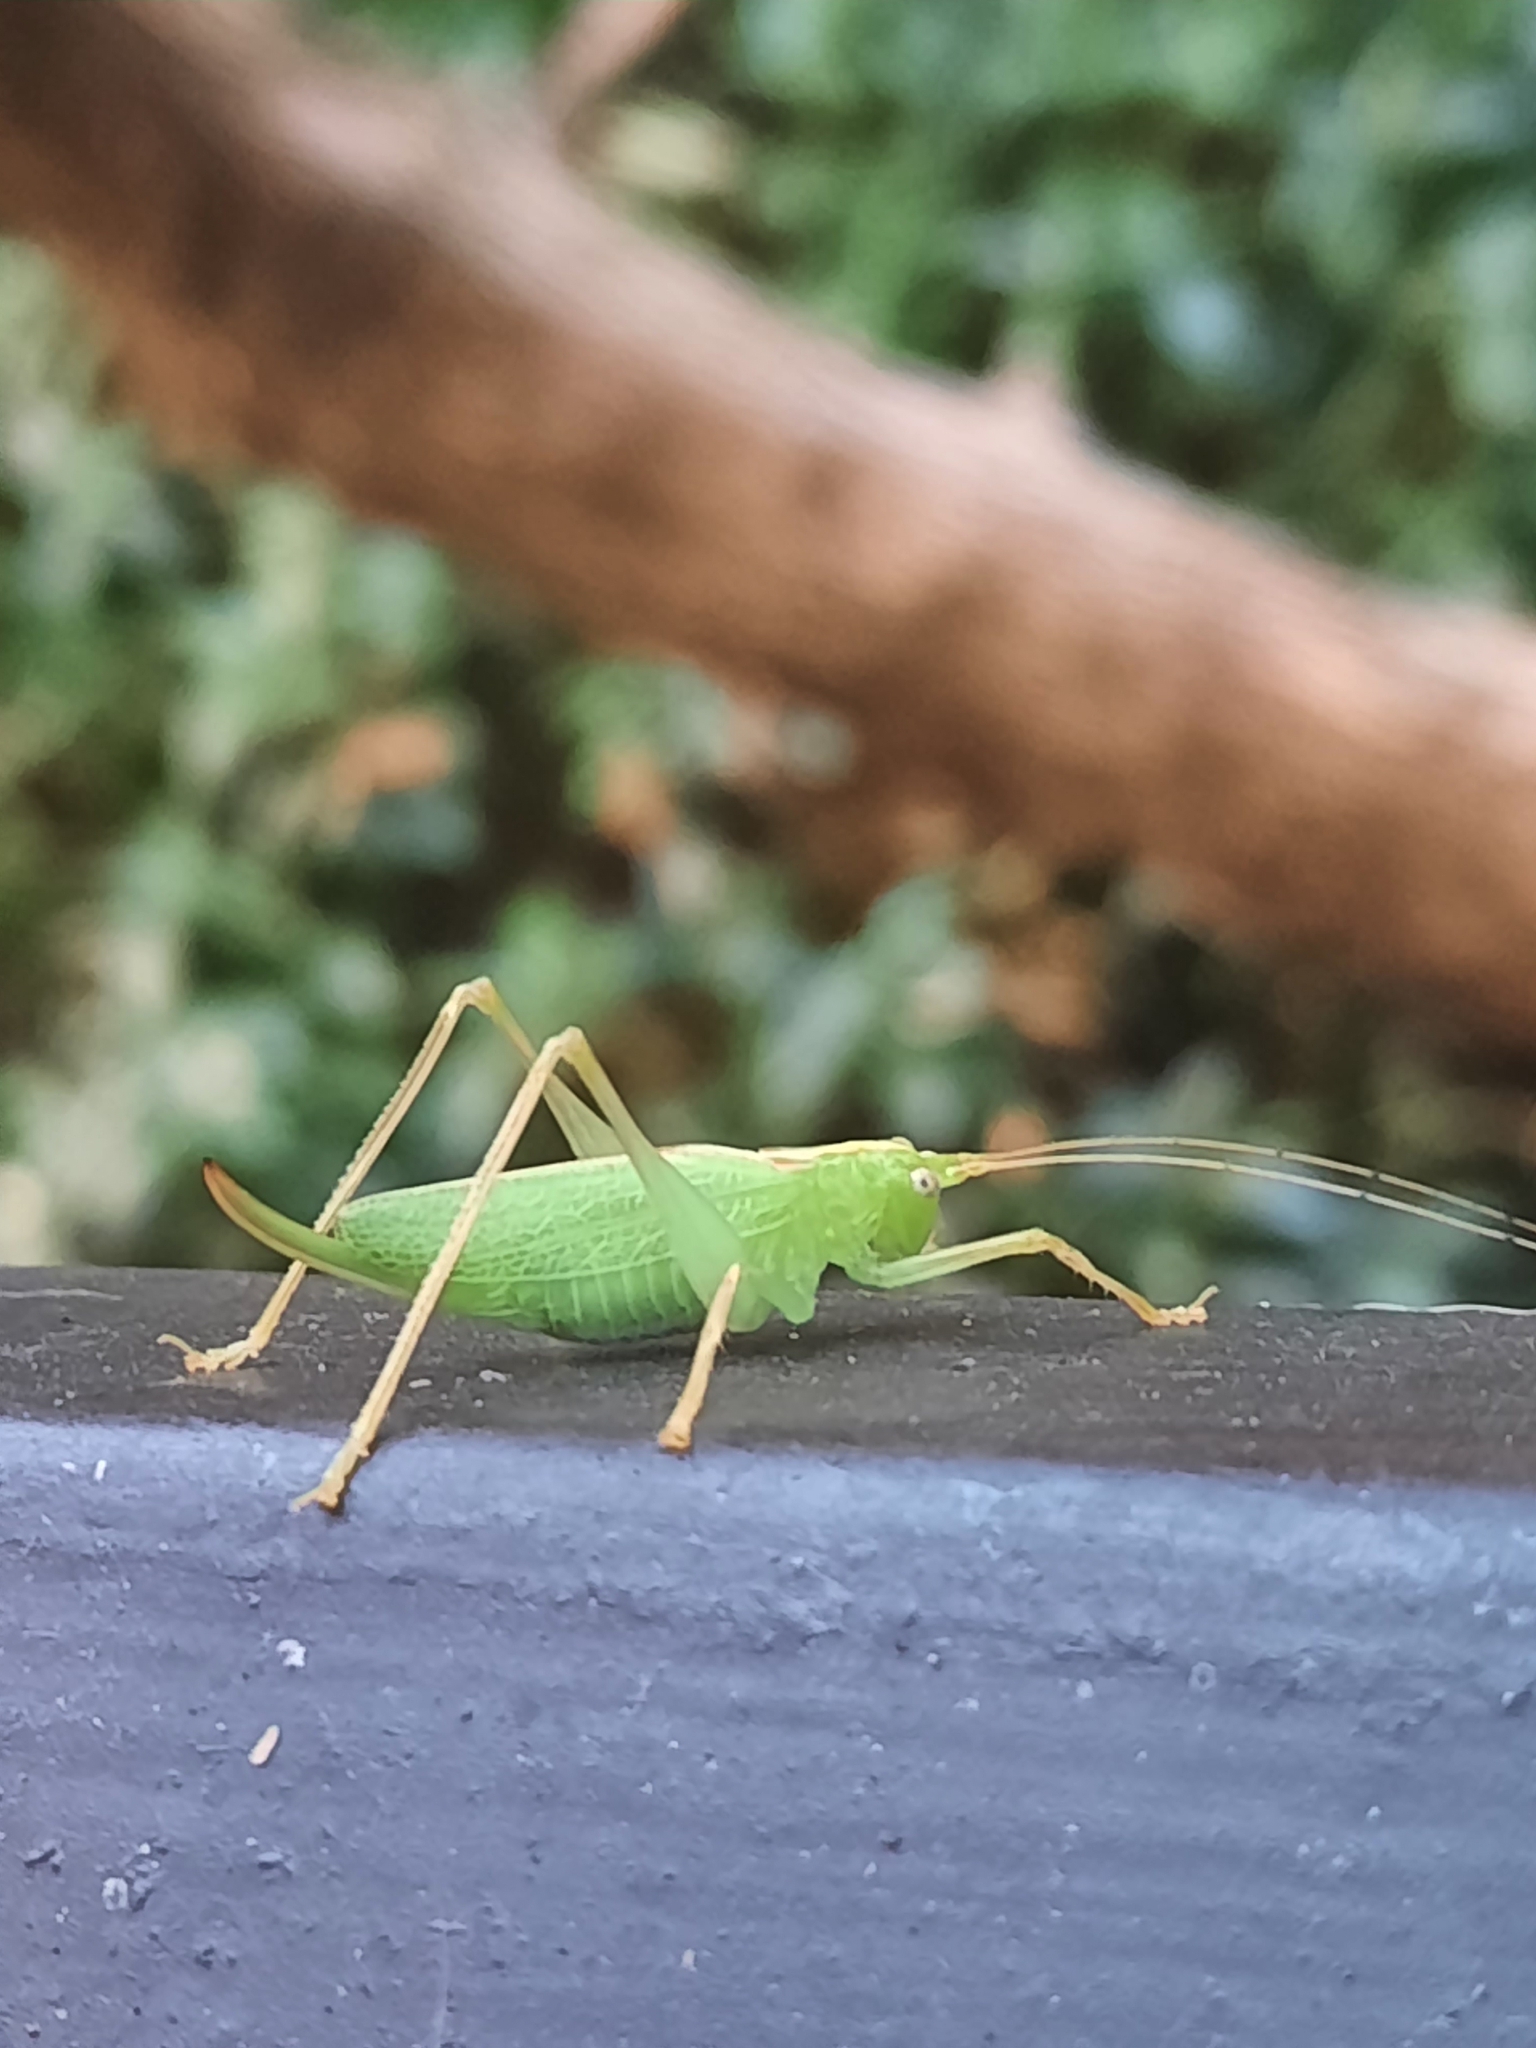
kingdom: Animalia
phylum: Arthropoda
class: Insecta
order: Orthoptera
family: Tettigoniidae
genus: Meconema
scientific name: Meconema thalassinum
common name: Oak bush-cricket
